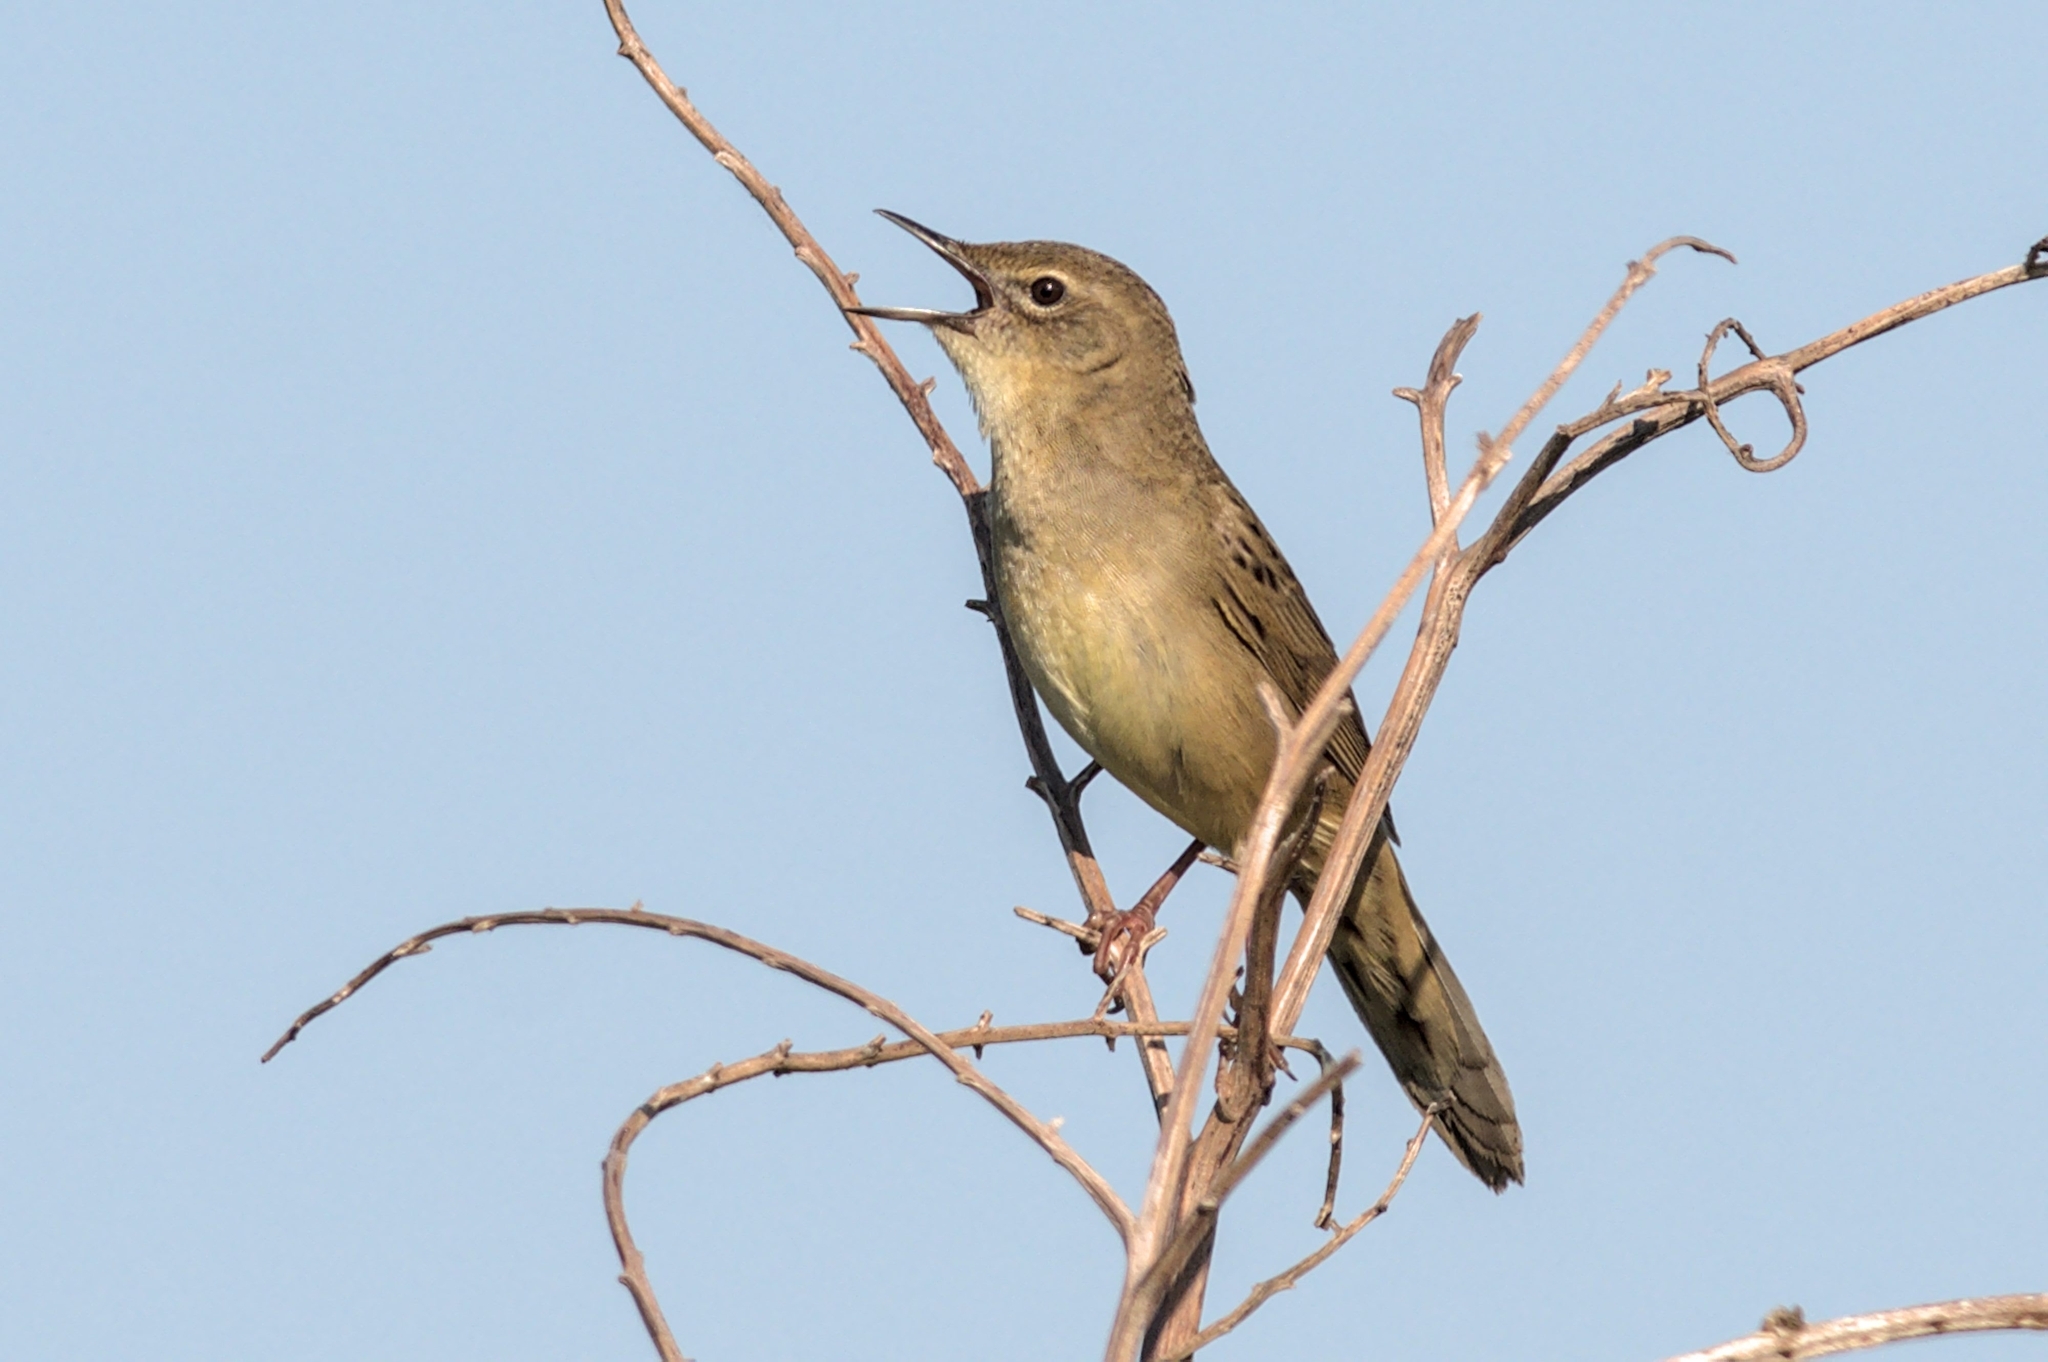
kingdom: Animalia
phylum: Chordata
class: Aves
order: Passeriformes
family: Locustellidae
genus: Locustella
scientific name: Locustella naevia
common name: Common grasshopper warbler
